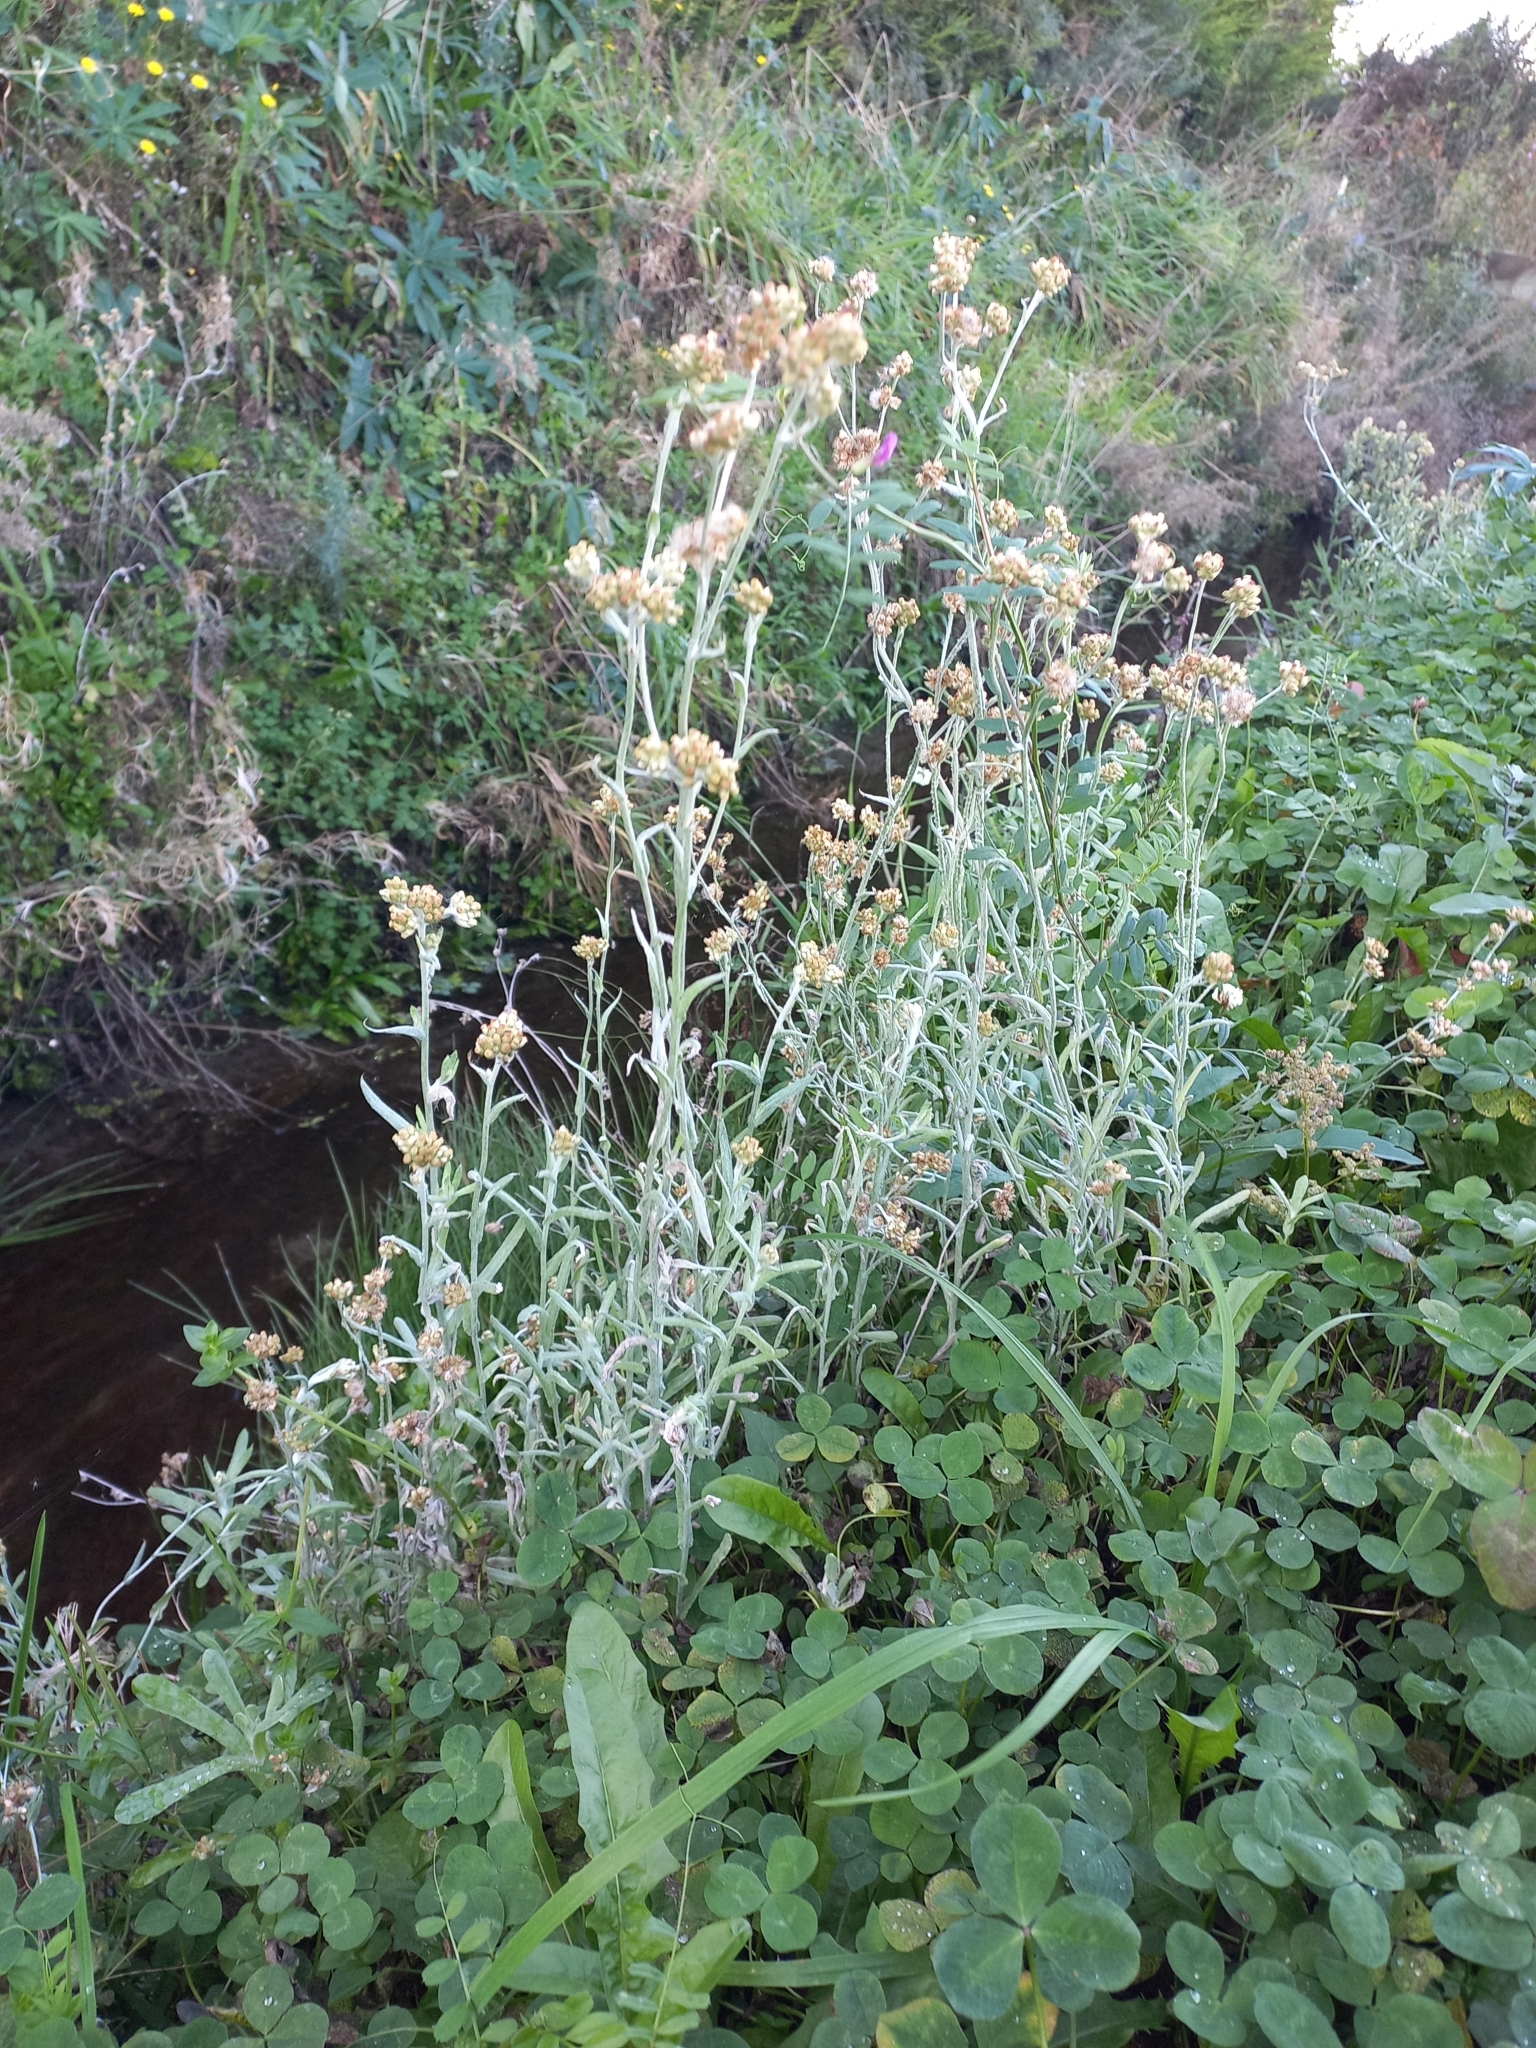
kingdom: Plantae
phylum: Tracheophyta
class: Magnoliopsida
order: Asterales
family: Asteraceae
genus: Helichrysum
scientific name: Helichrysum luteoalbum
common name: Daisy
